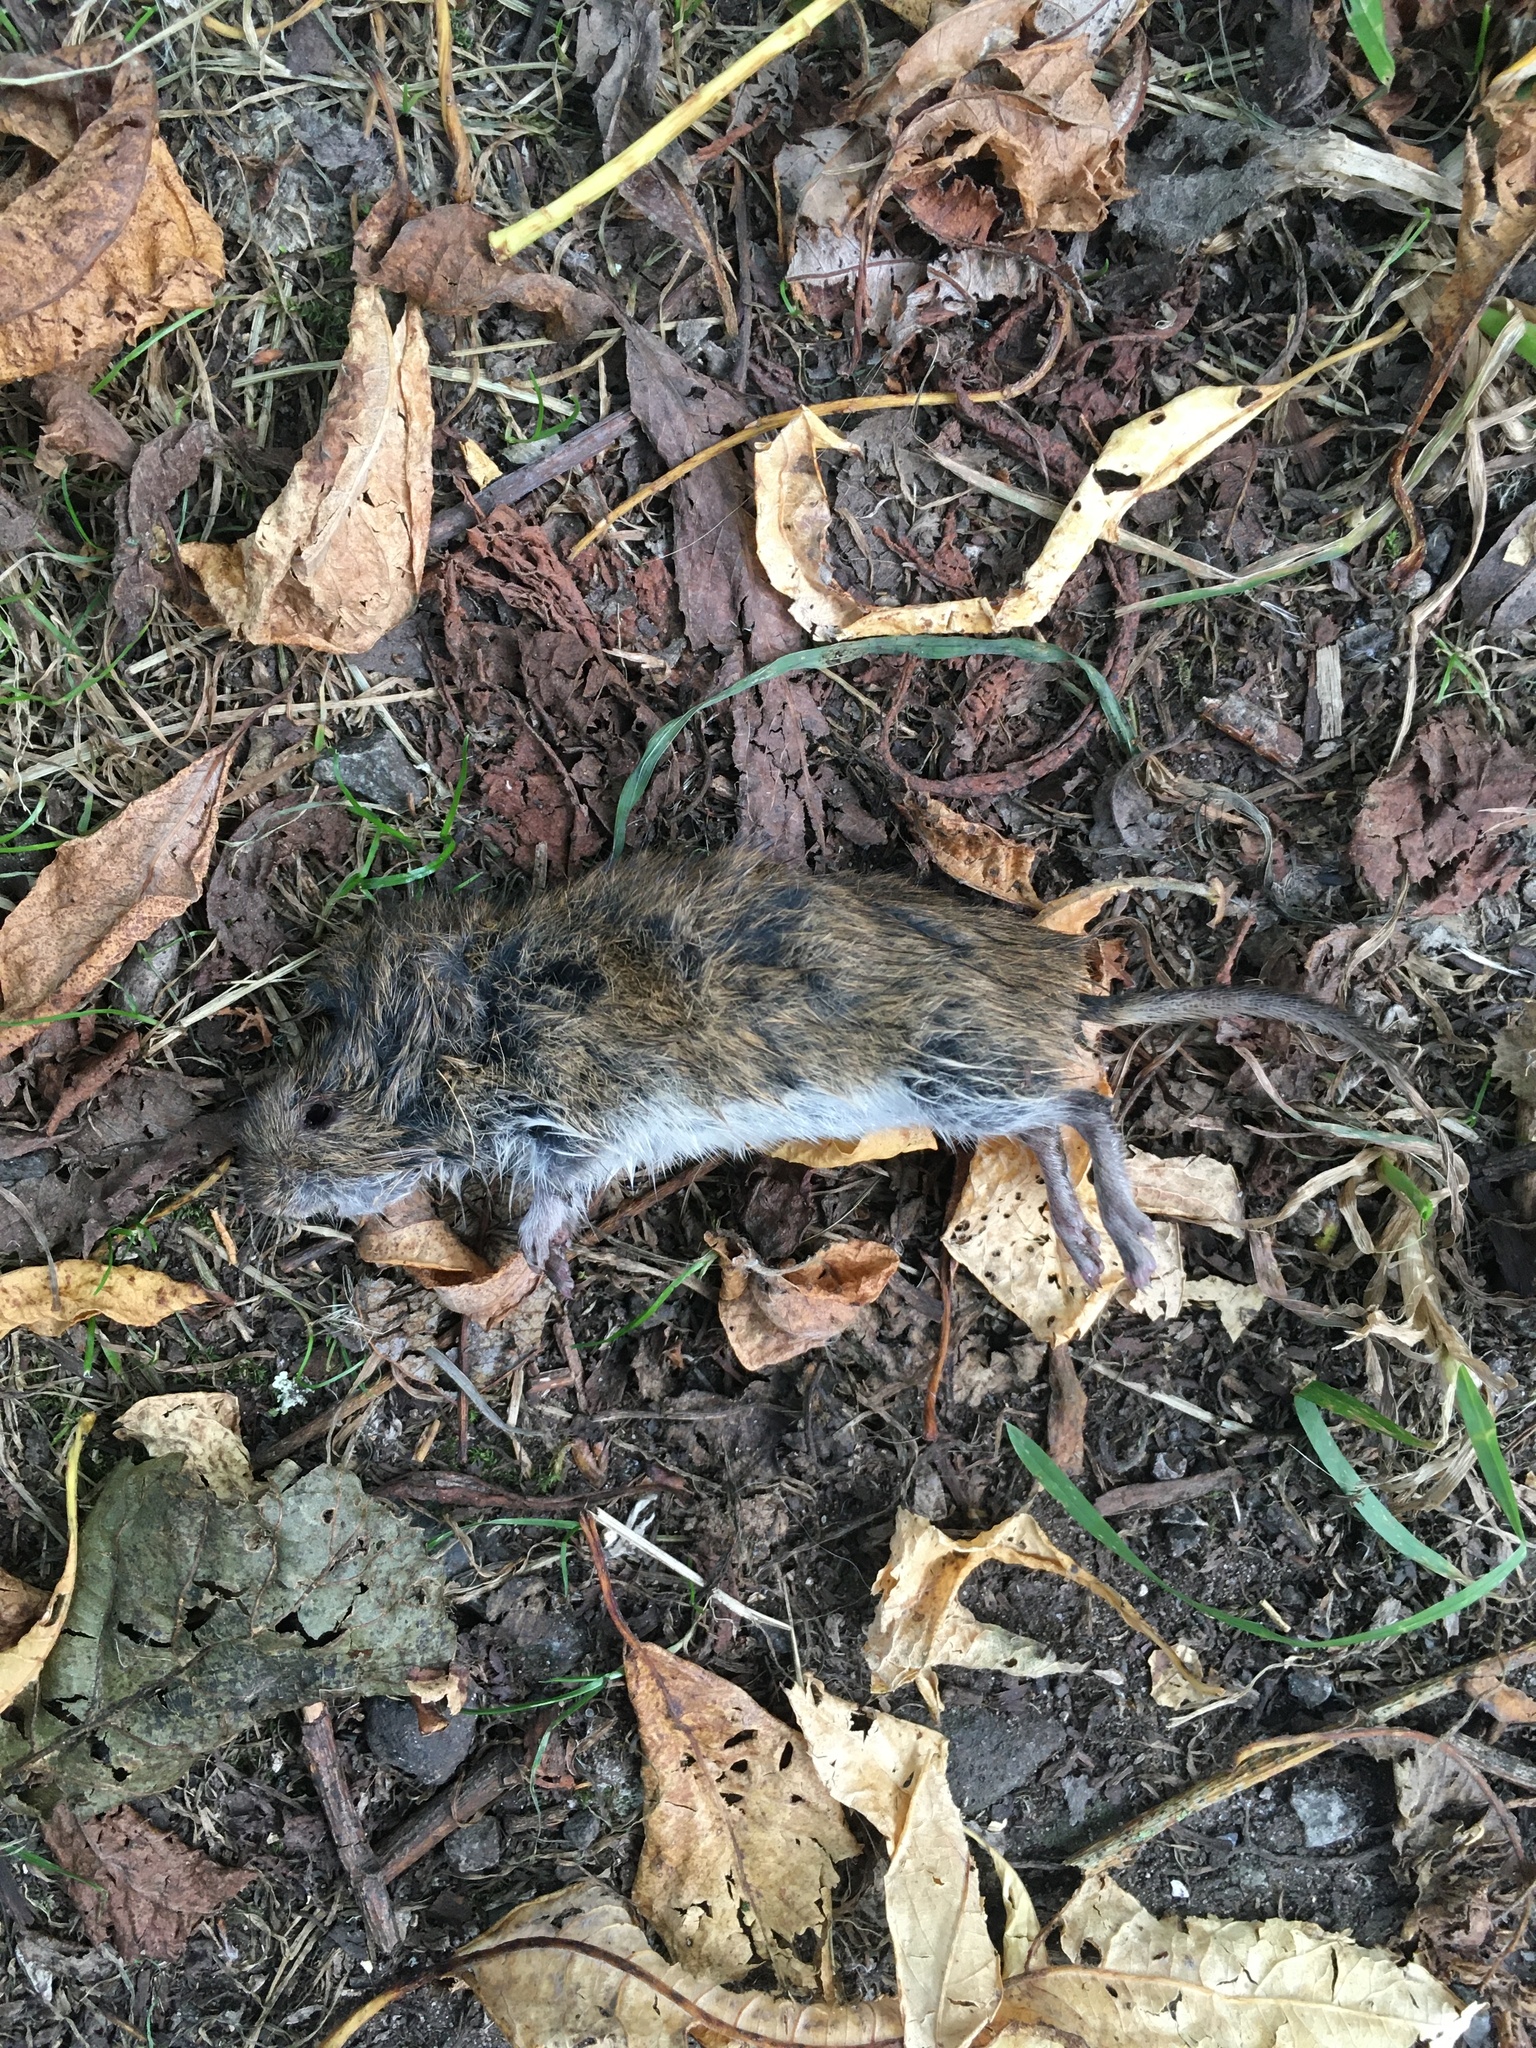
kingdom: Animalia
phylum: Chordata
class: Mammalia
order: Rodentia
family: Cricetidae
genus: Microtus
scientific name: Microtus agrestis
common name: Field vole
